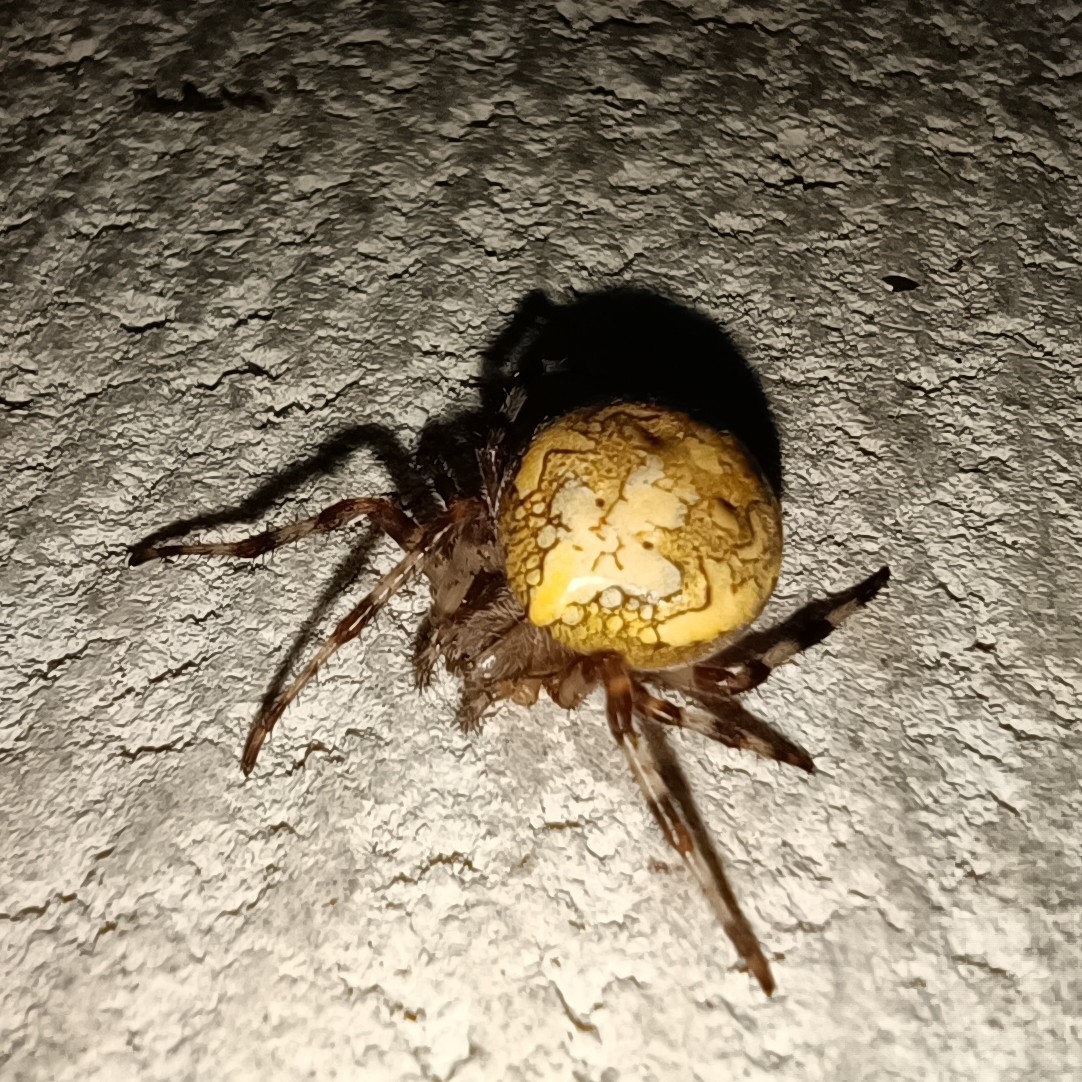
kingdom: Animalia
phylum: Arthropoda
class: Arachnida
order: Araneae
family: Araneidae
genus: Araneus
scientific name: Araneus marmoreus
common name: Marbled orbweaver
